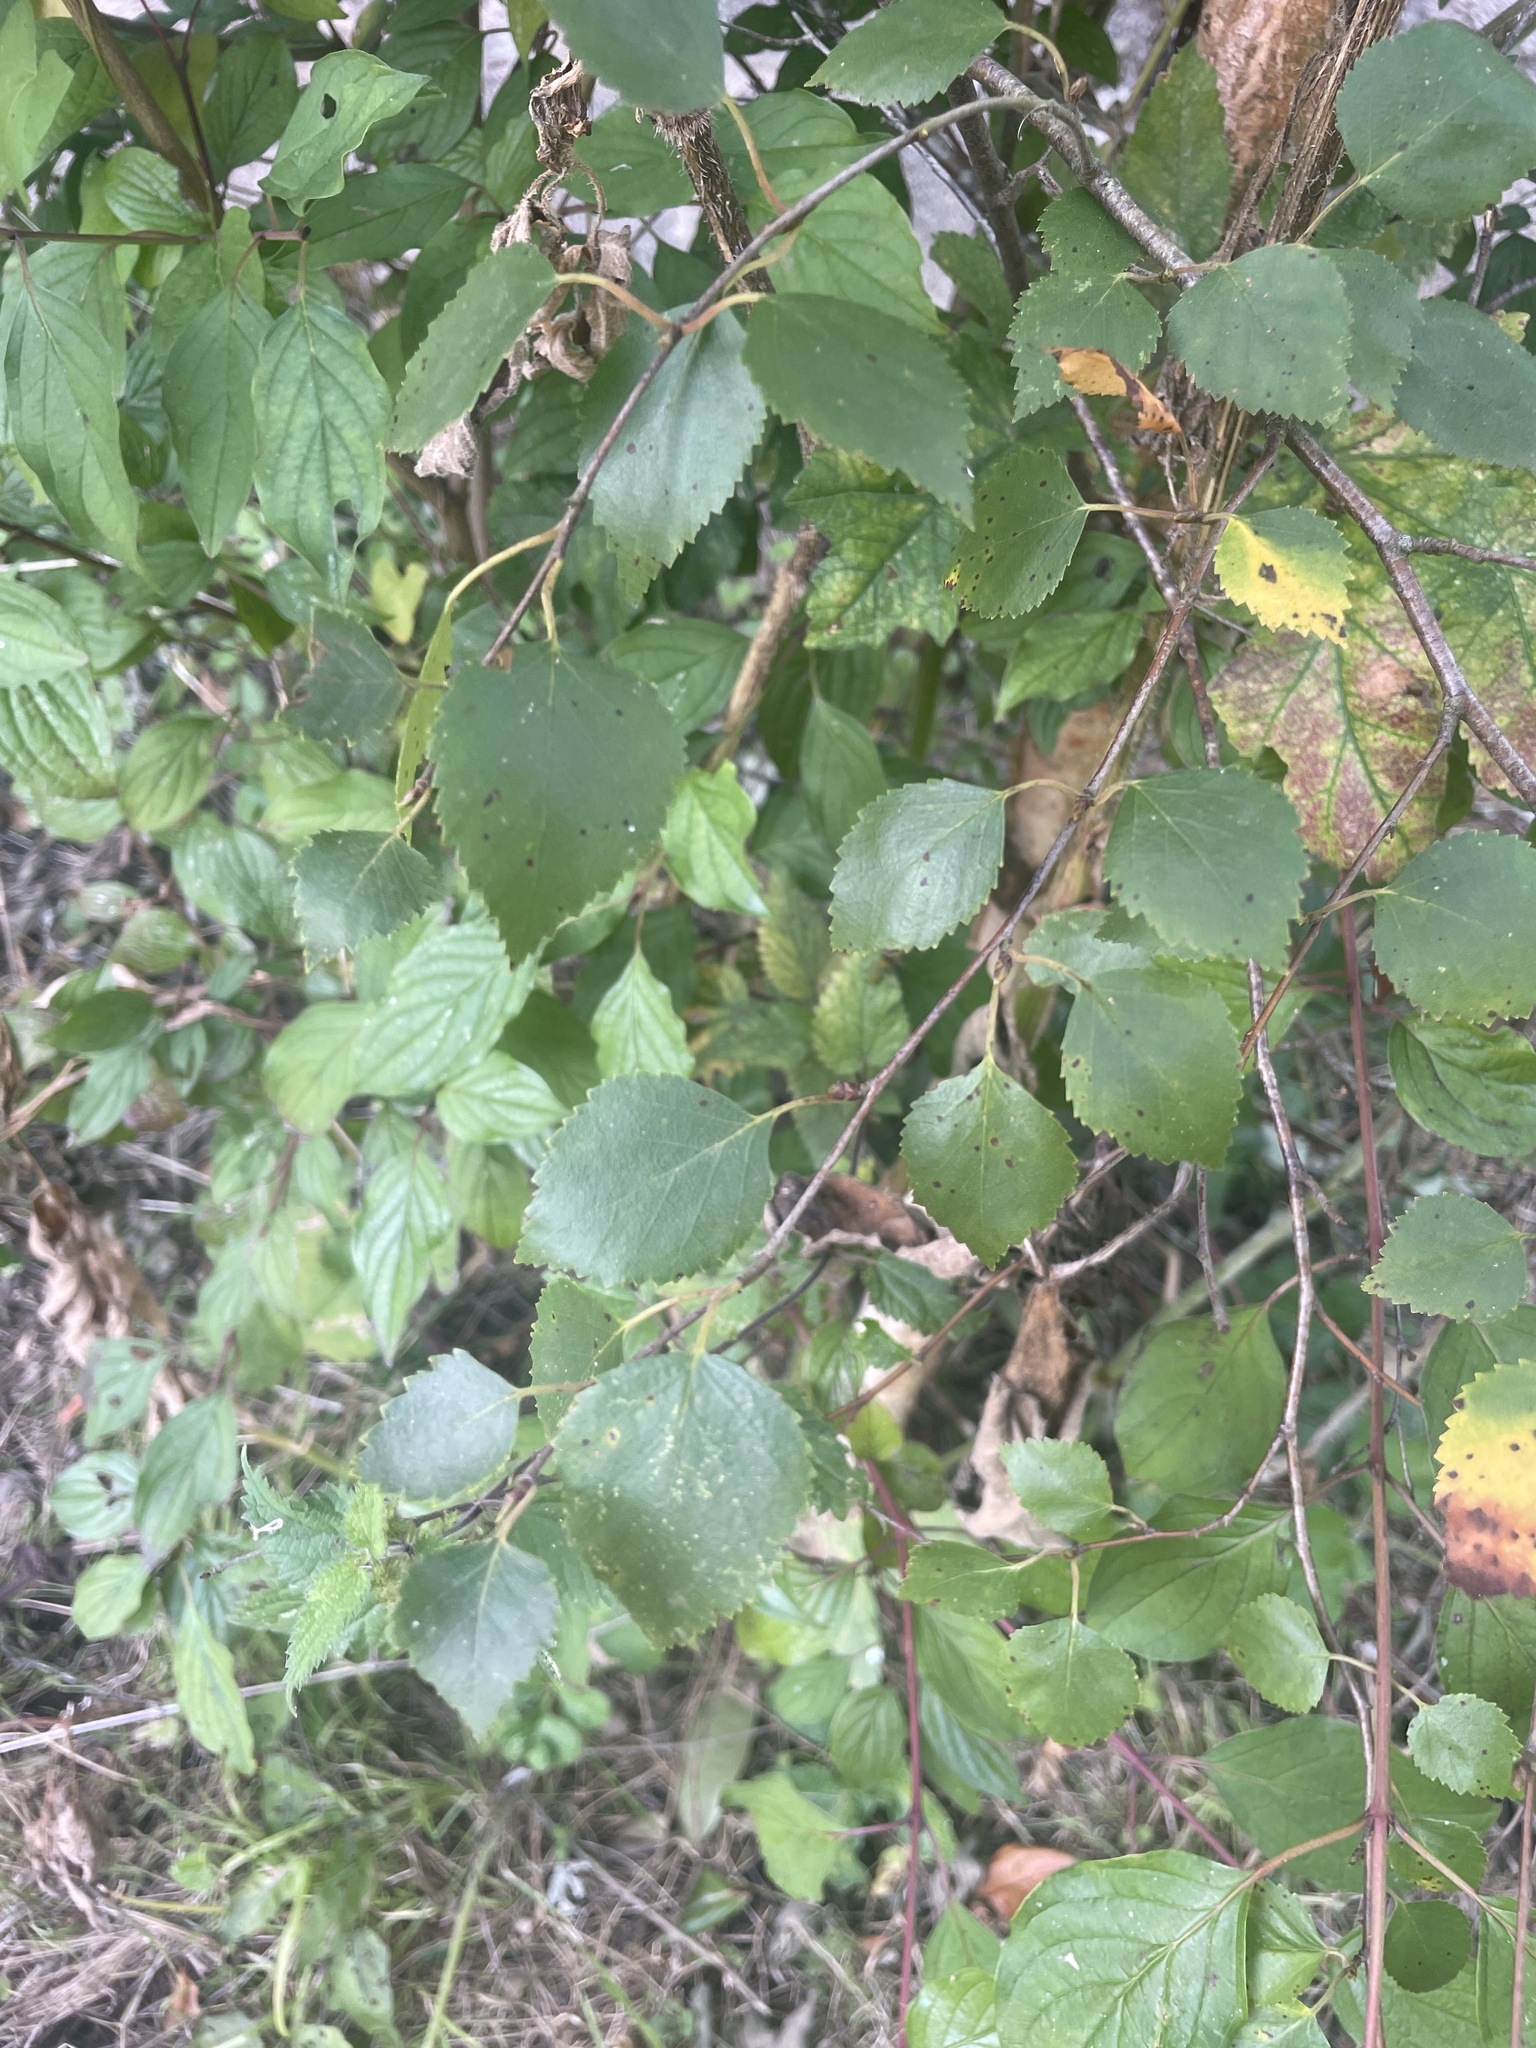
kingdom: Plantae
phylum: Tracheophyta
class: Magnoliopsida
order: Fagales
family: Betulaceae
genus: Betula
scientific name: Betula pendula
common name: Silver birch
